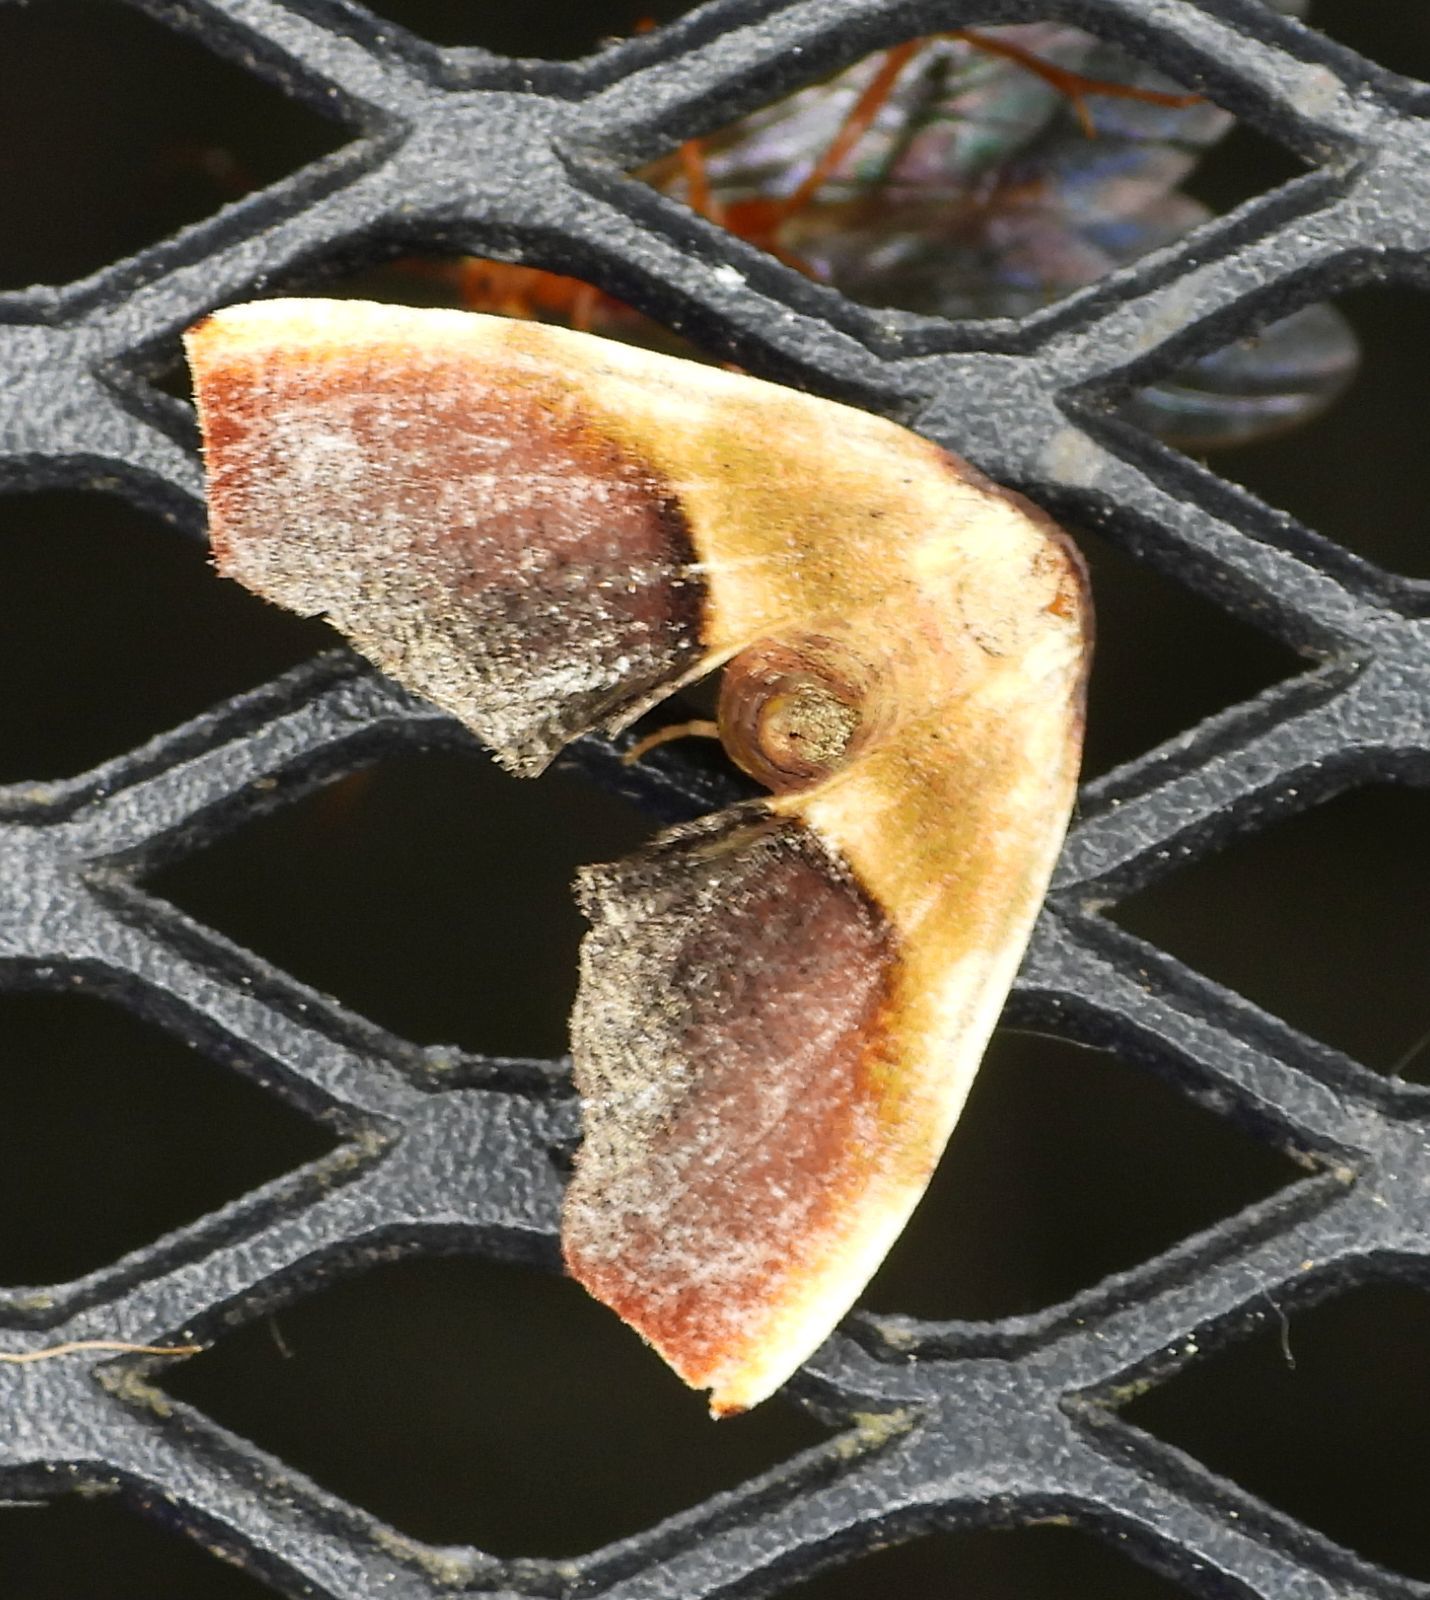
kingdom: Animalia
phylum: Arthropoda
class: Insecta
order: Lepidoptera
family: Geometridae
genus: Plagodis
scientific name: Plagodis kuetzingi
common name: Purple plagodis
